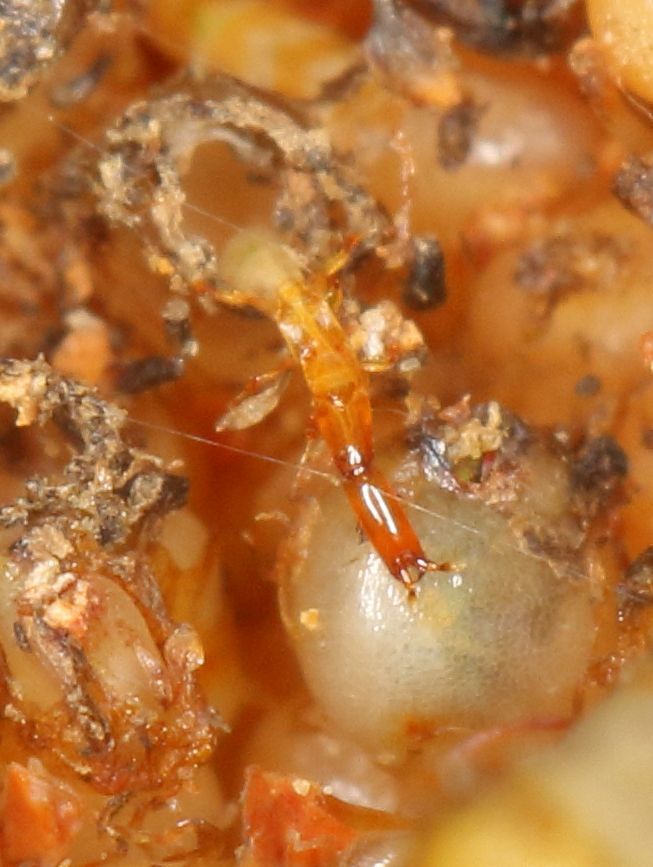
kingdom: Animalia
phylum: Arthropoda
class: Insecta
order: Hymenoptera
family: Agaonidae
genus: Ceratosolen
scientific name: Ceratosolen capensis
